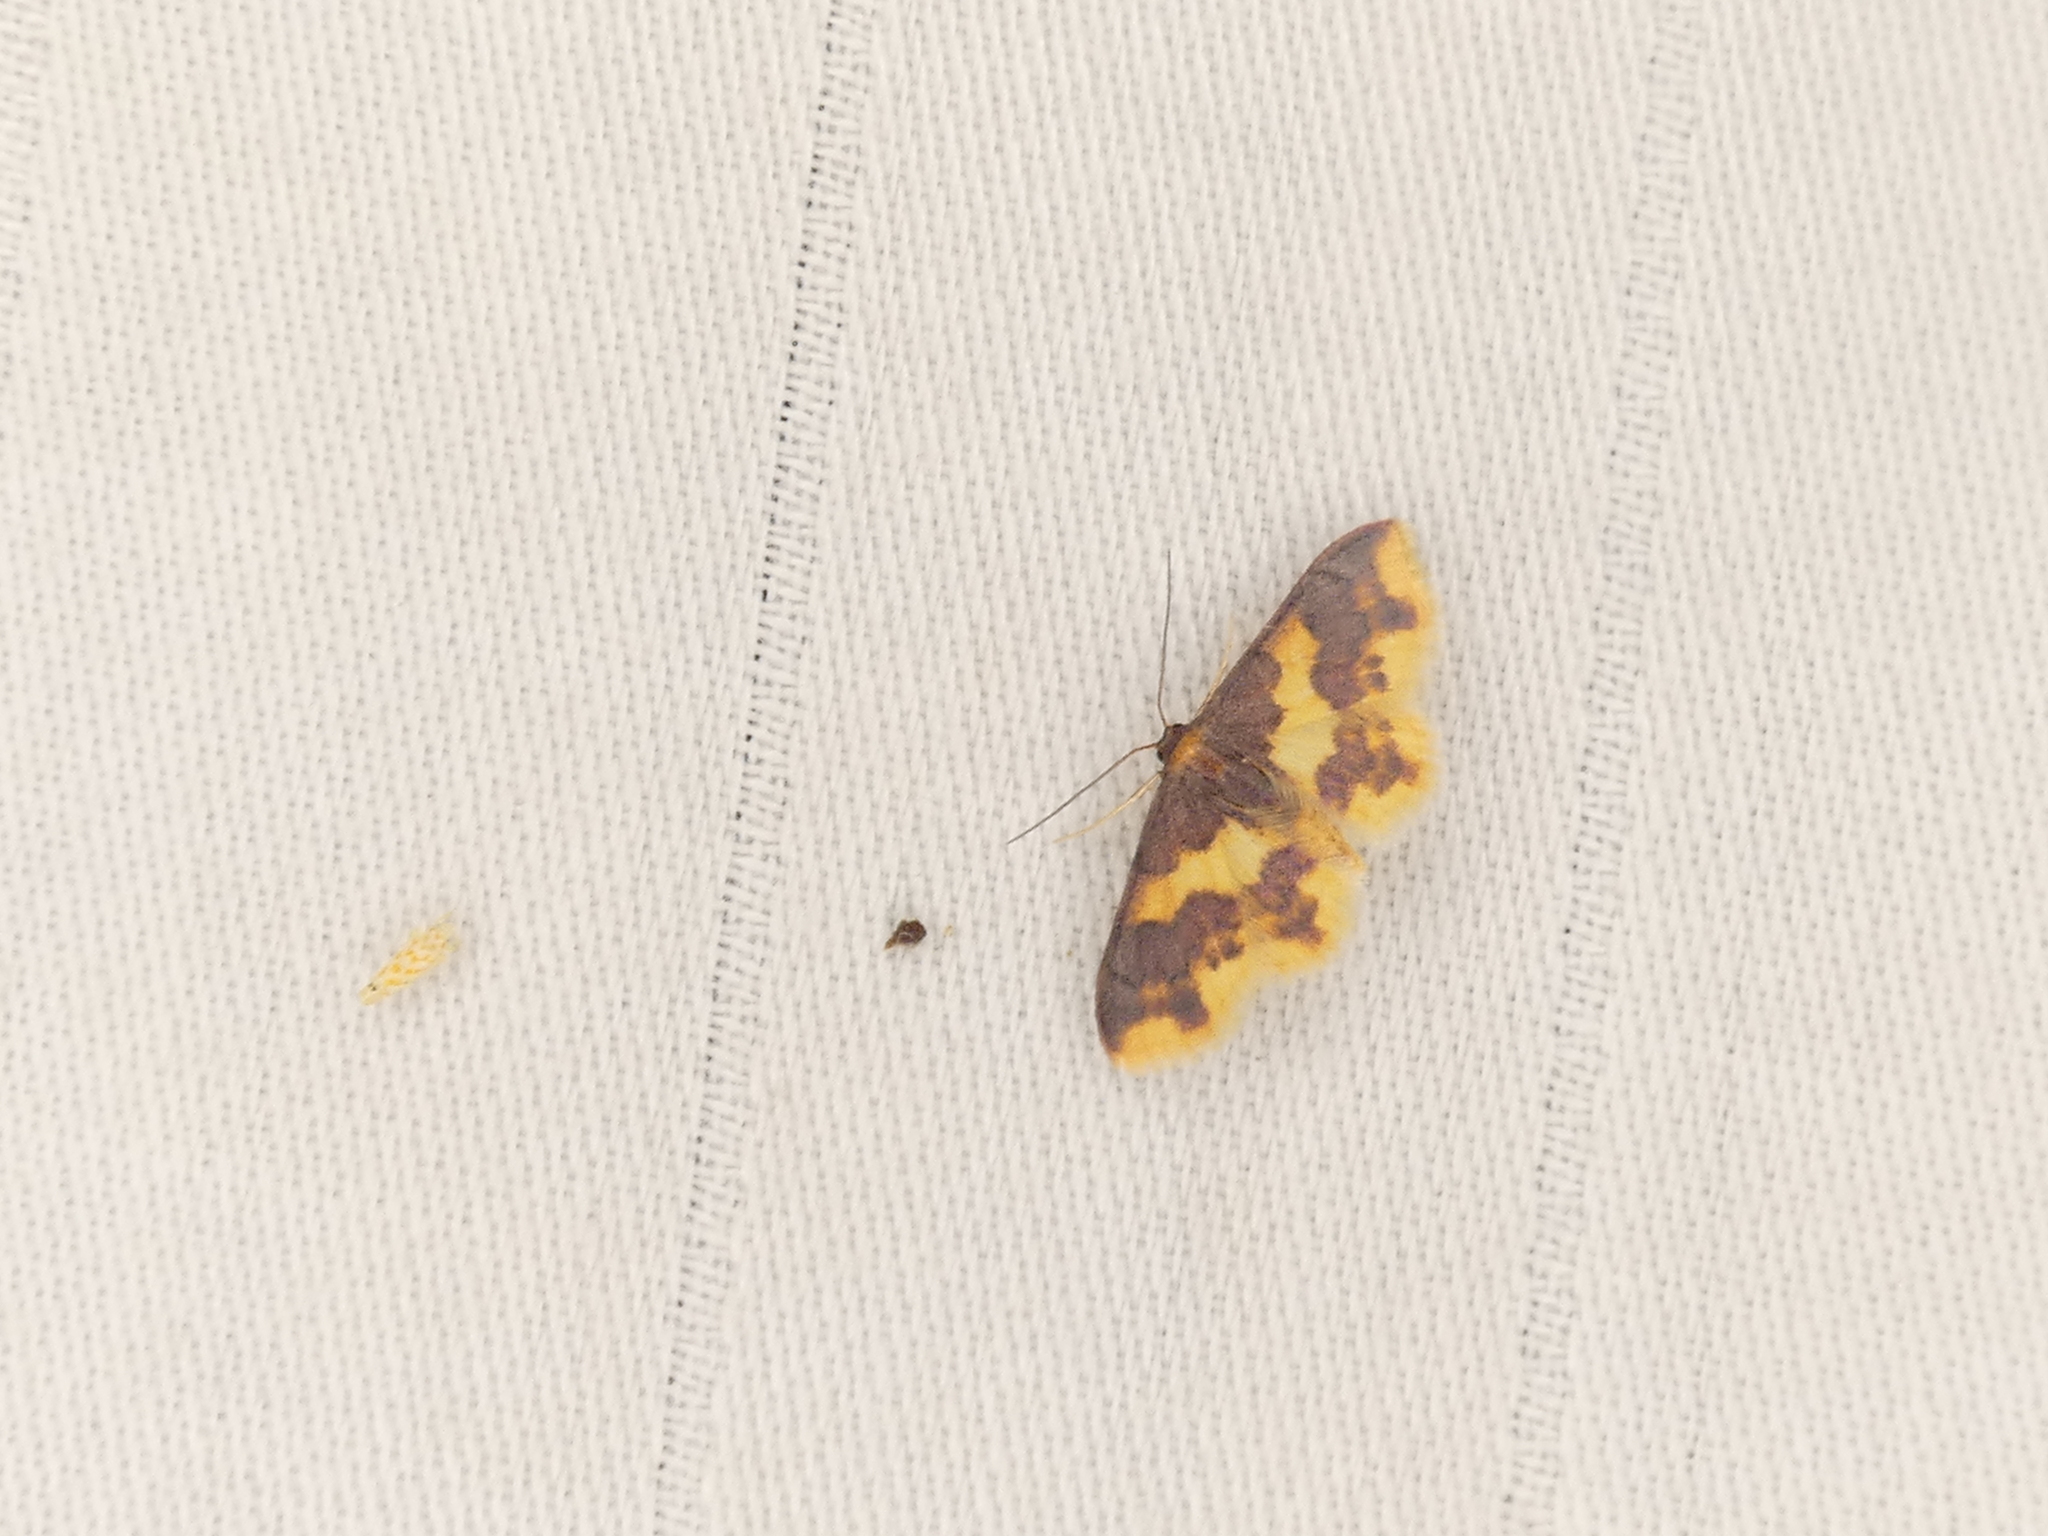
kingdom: Animalia
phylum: Arthropoda
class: Insecta
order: Lepidoptera
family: Geometridae
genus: Lophosis
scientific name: Lophosis labeculata
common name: Stained lophosis moth
